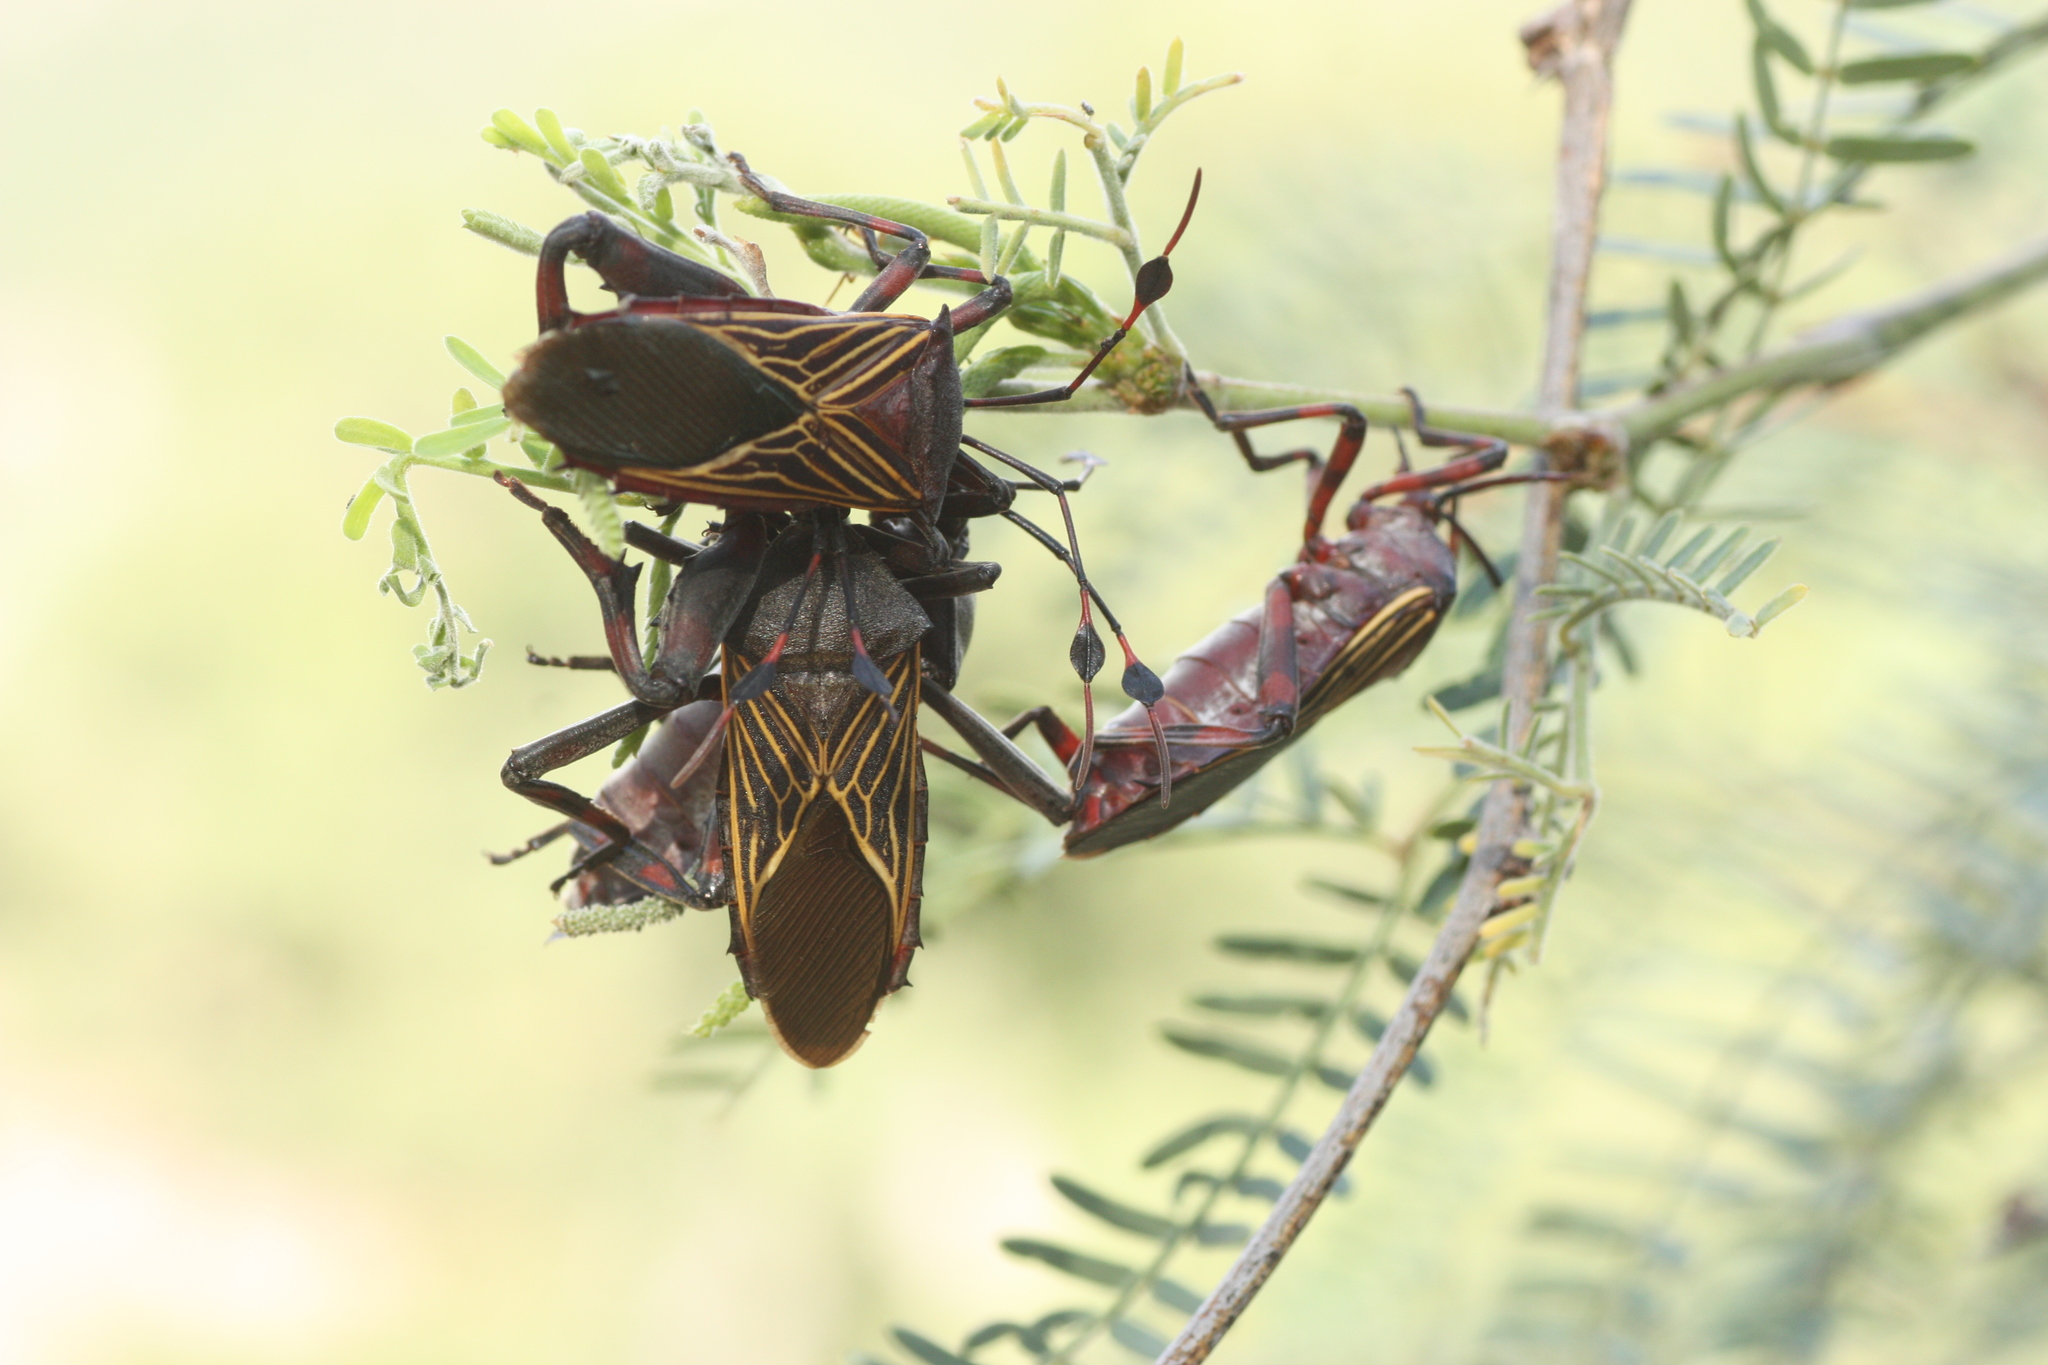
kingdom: Animalia
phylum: Arthropoda
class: Insecta
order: Hemiptera
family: Coreidae
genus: Thasus
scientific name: Thasus neocalifornicus
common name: Giant mesquite bug
